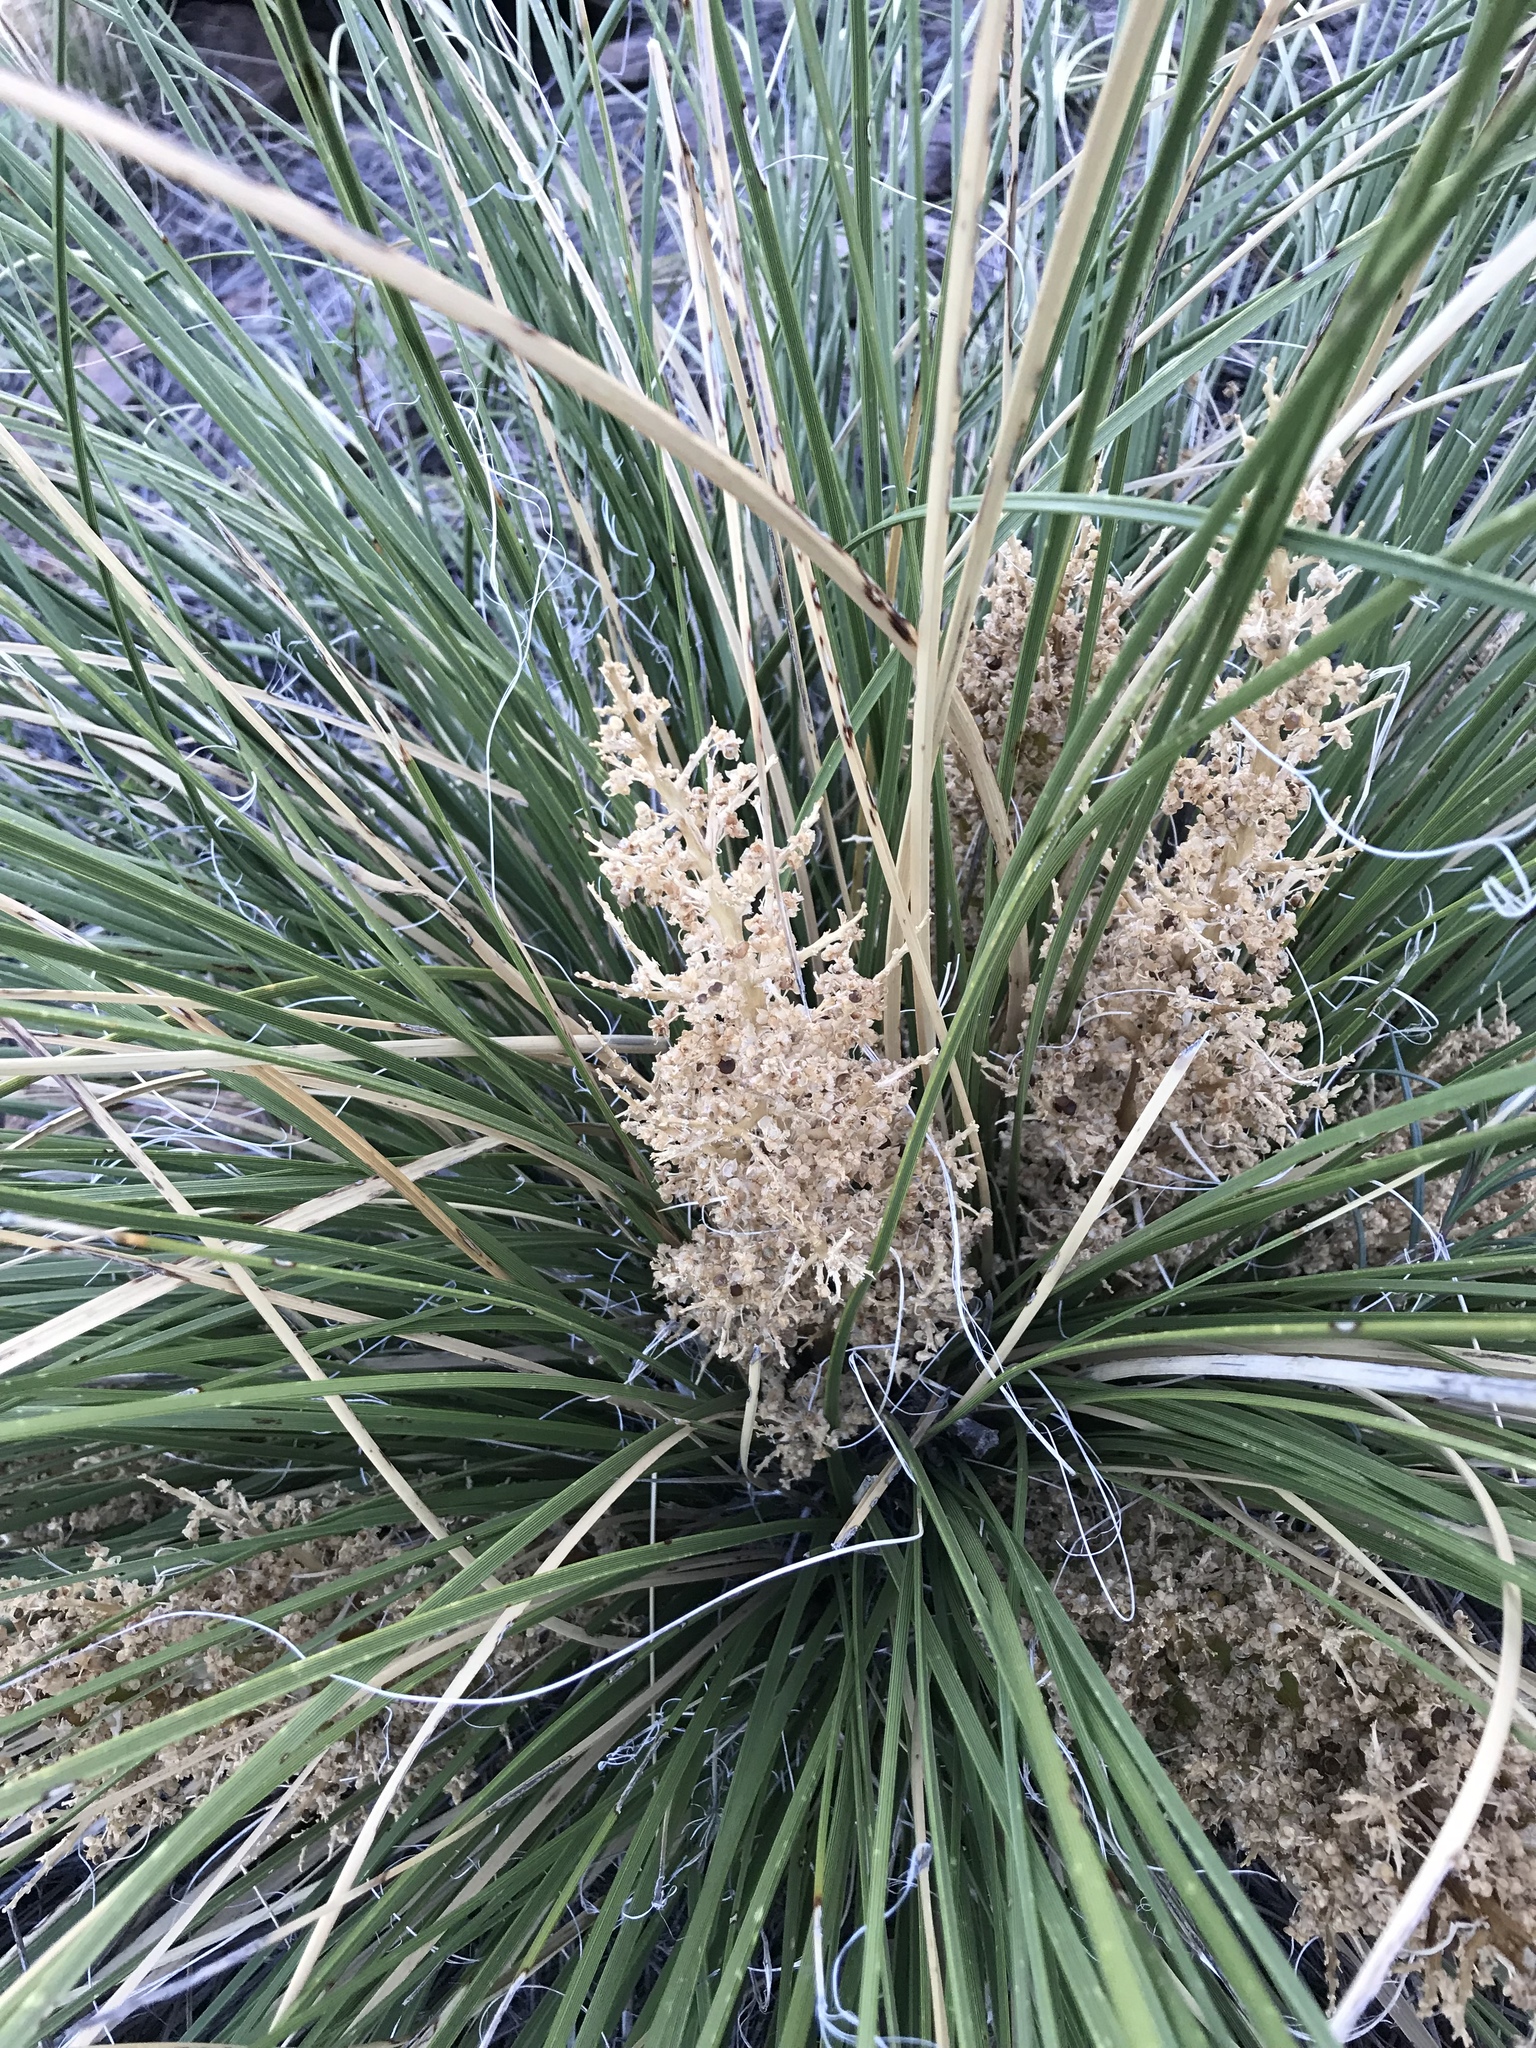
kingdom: Plantae
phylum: Tracheophyta
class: Liliopsida
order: Asparagales
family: Asparagaceae
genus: Nolina
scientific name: Nolina texana
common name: Texas sacahuiste
